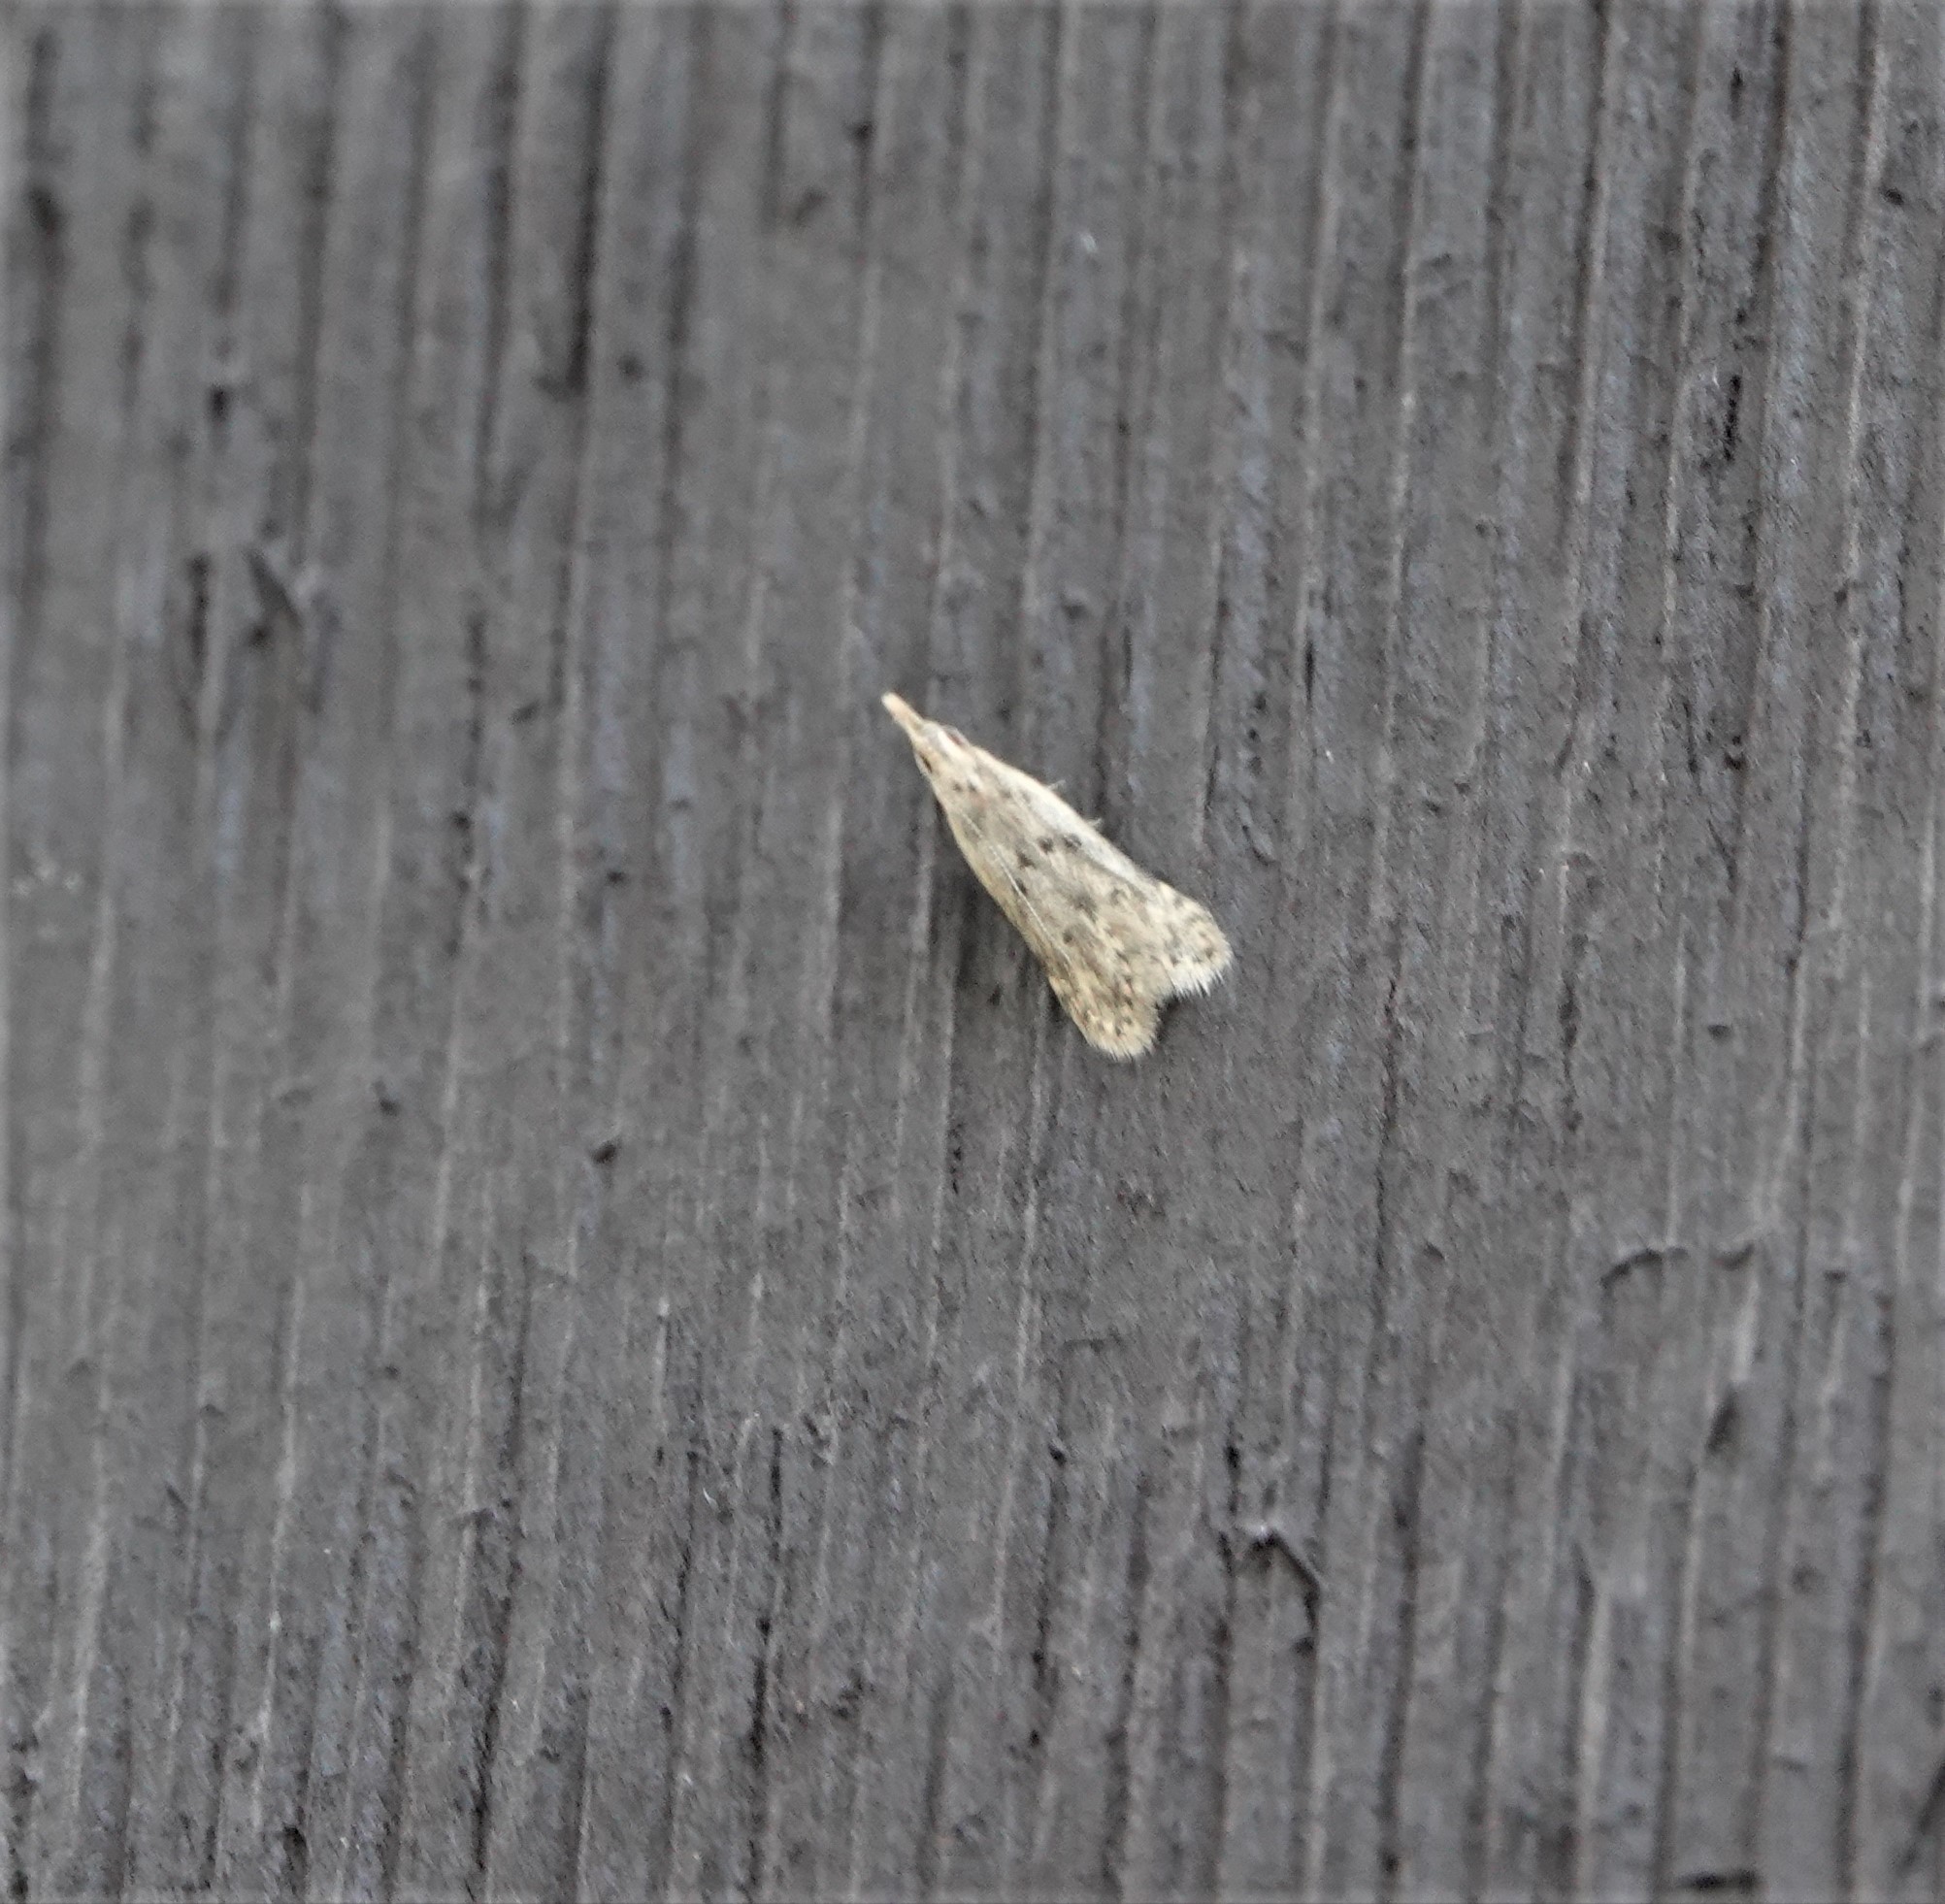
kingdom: Animalia
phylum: Arthropoda
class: Insecta
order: Lepidoptera
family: Gelechiidae
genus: Dichomeris
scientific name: Dichomeris punctipennella
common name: Many-spotted dichomeris moth
